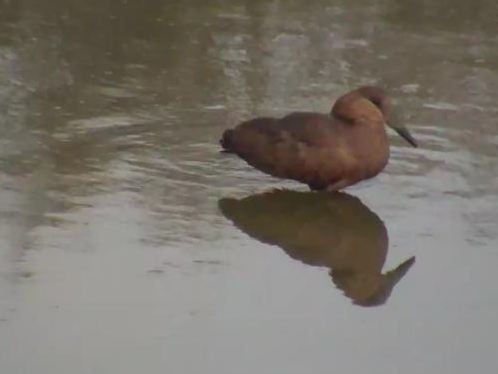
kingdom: Animalia
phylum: Chordata
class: Aves
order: Pelecaniformes
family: Scopidae
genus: Scopus
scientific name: Scopus umbretta
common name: Hamerkop
